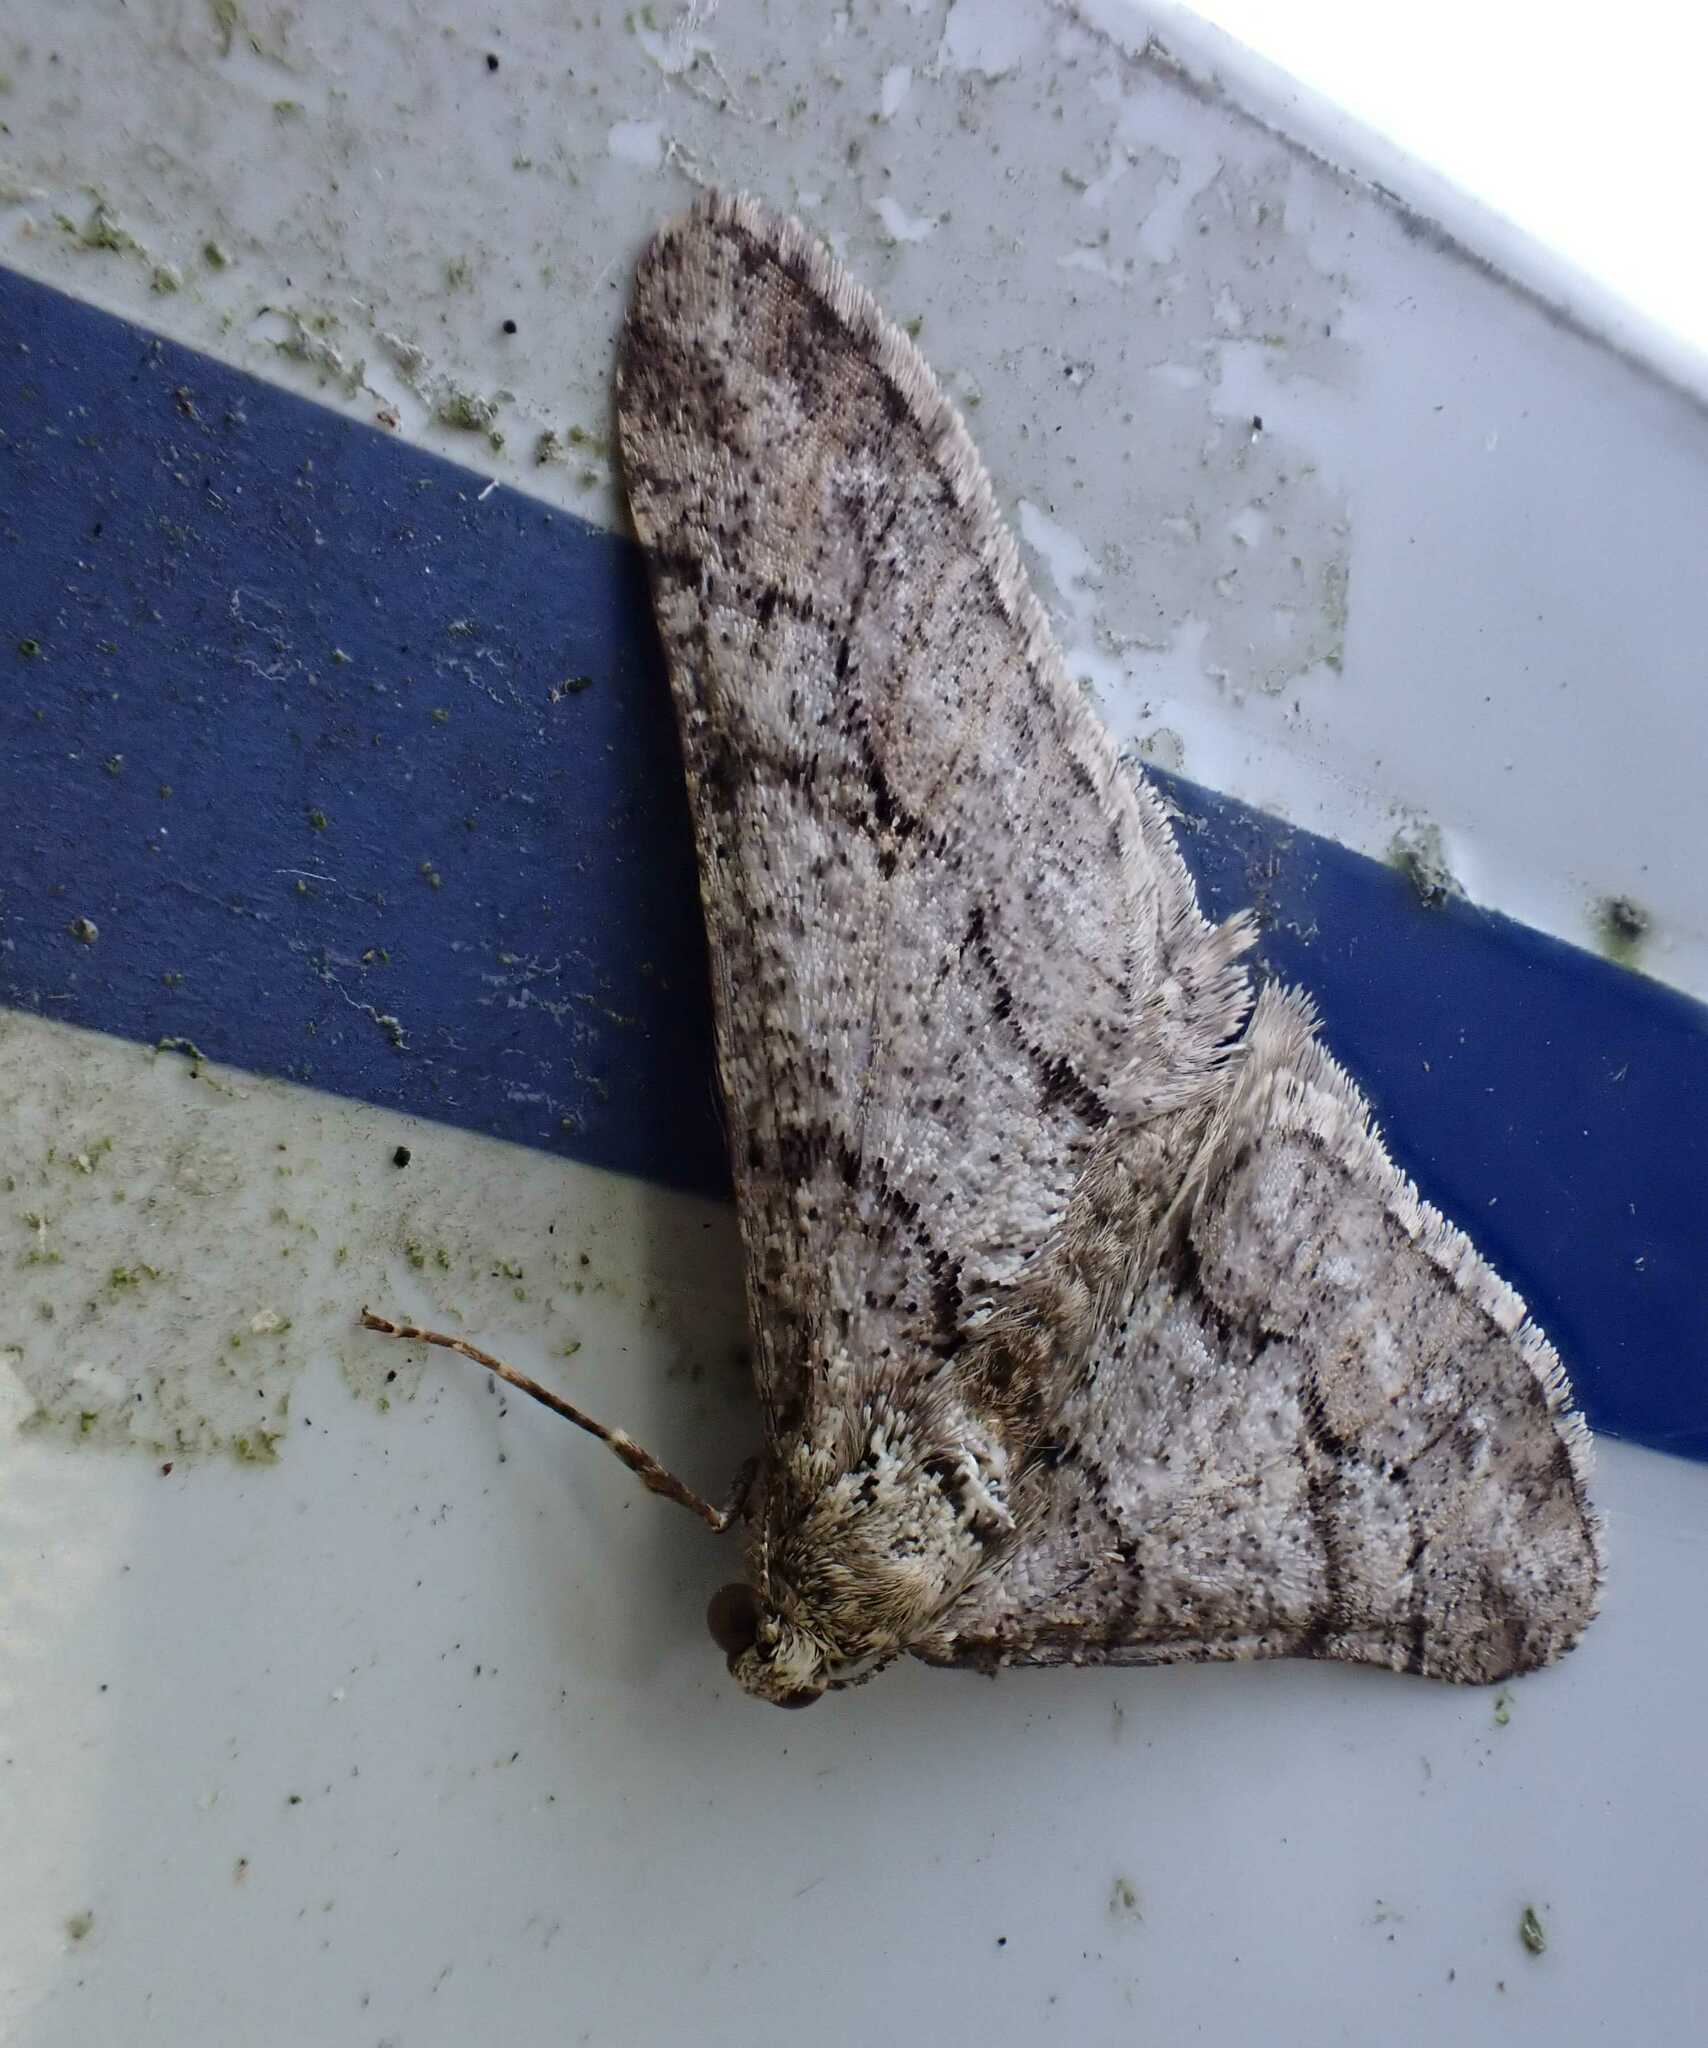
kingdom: Animalia
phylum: Arthropoda
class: Insecta
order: Lepidoptera
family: Geometridae
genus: Agriopis
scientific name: Agriopis leucophaearia
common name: Spring usher
